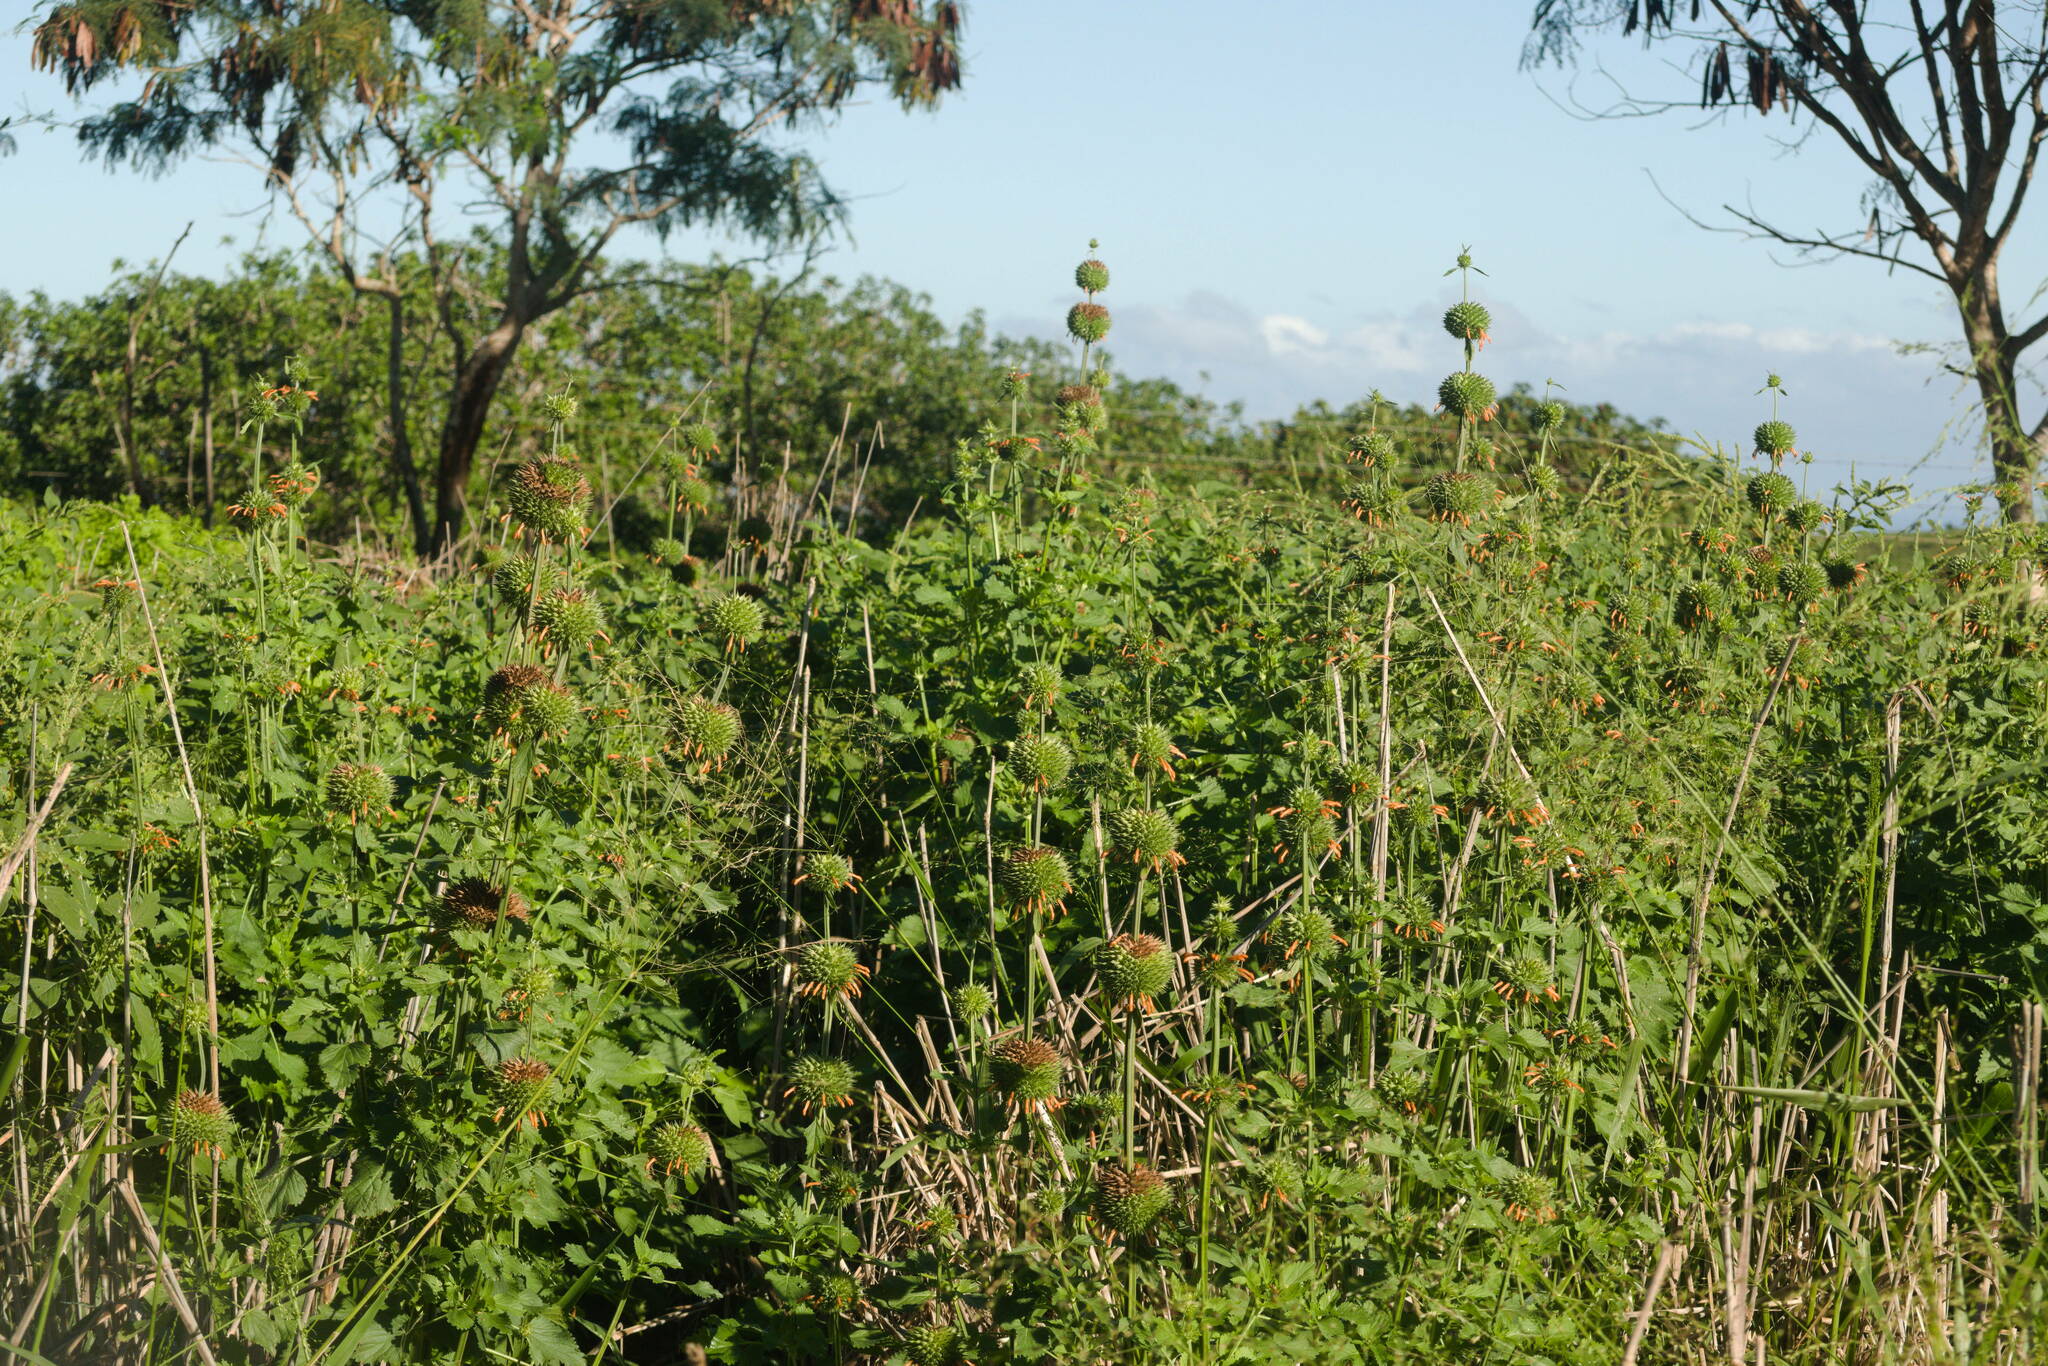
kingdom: Plantae
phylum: Tracheophyta
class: Magnoliopsida
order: Lamiales
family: Lamiaceae
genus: Leonotis
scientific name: Leonotis nepetifolia
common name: Christmas candlestick
